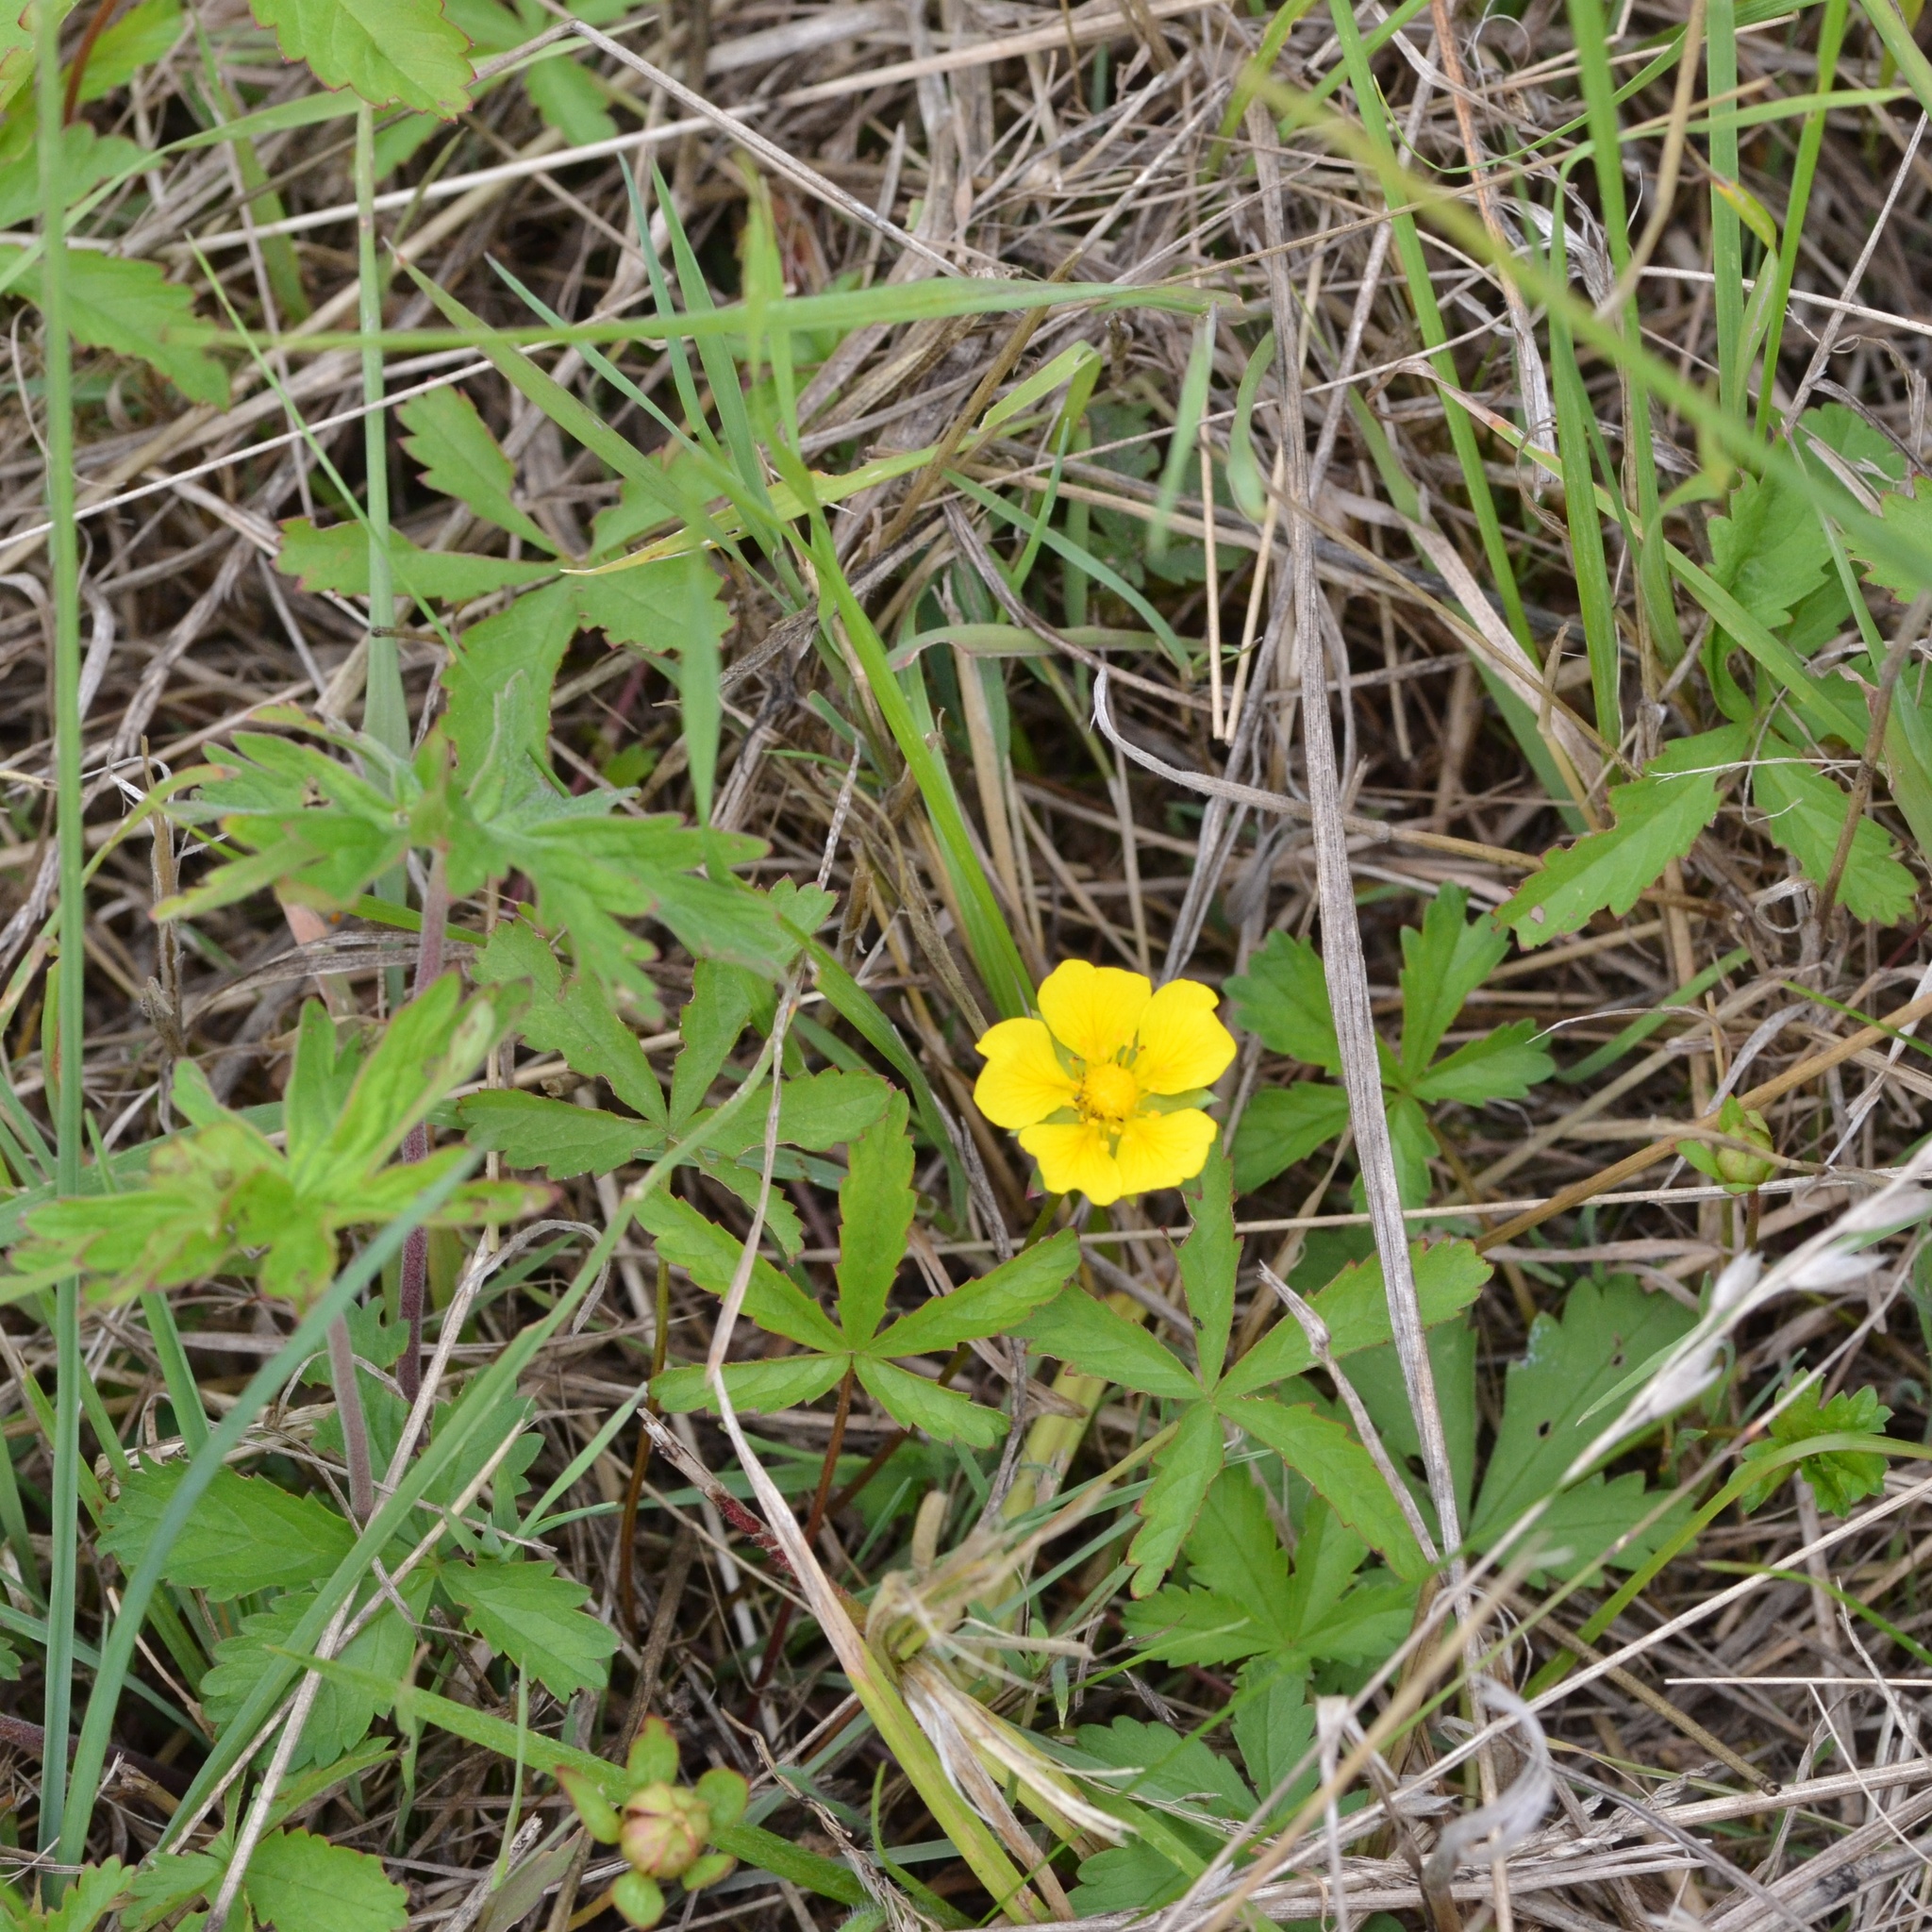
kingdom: Plantae
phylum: Tracheophyta
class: Magnoliopsida
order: Rosales
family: Rosaceae
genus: Potentilla
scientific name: Potentilla reptans
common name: Creeping cinquefoil
